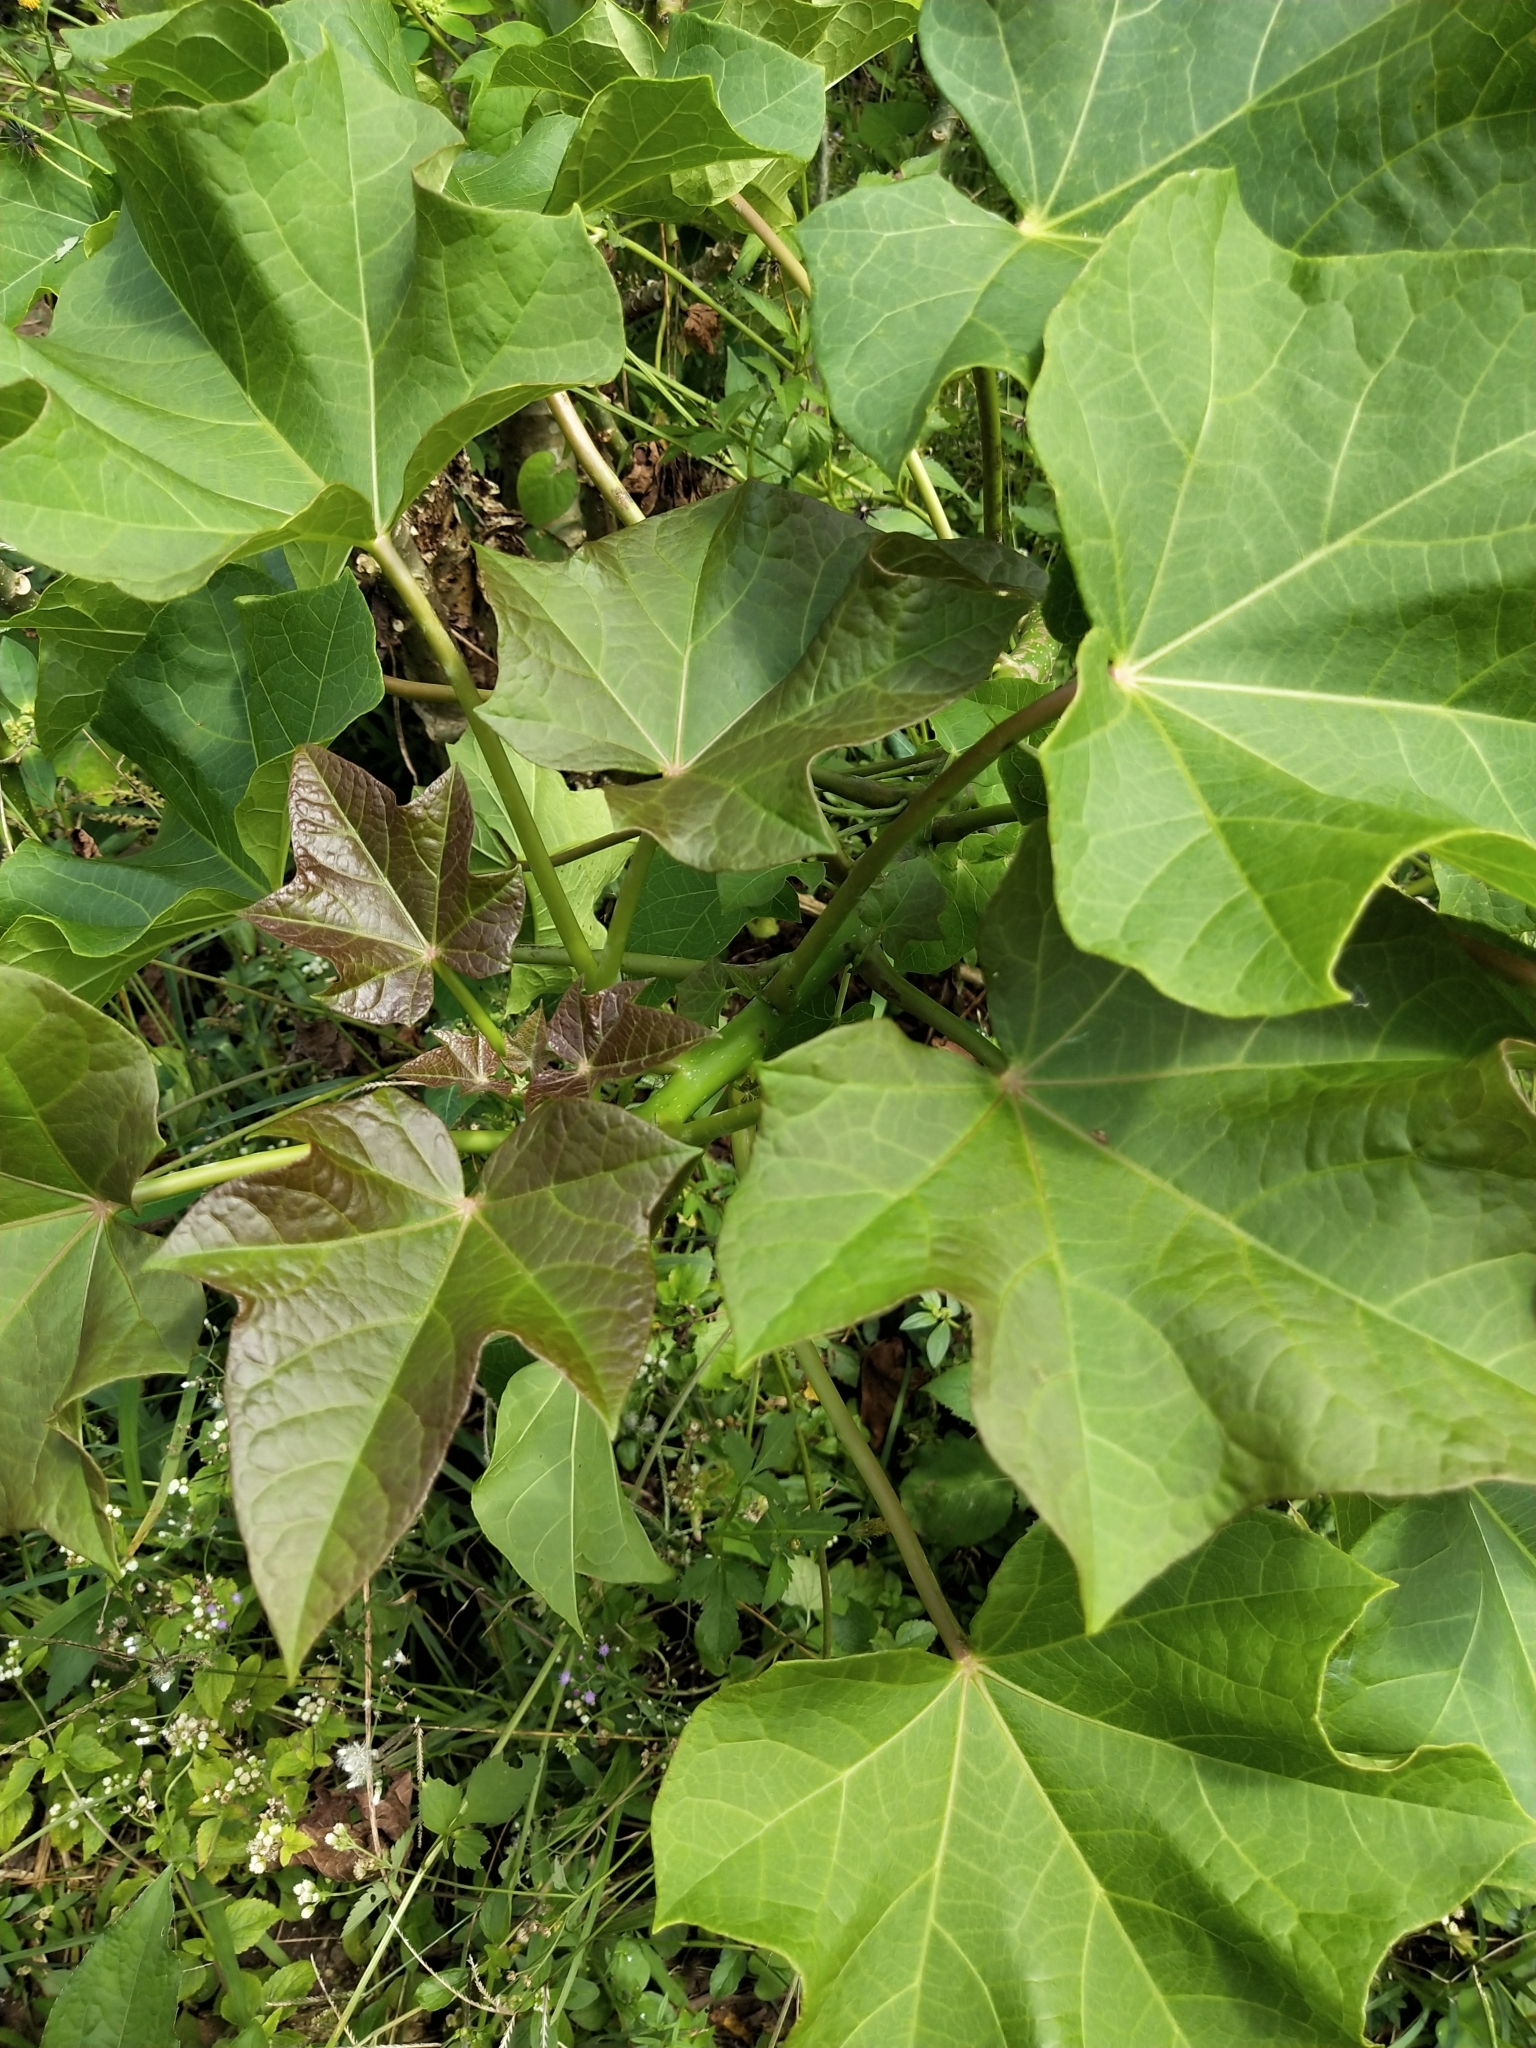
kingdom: Plantae
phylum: Tracheophyta
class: Magnoliopsida
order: Malpighiales
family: Euphorbiaceae
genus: Jatropha
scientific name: Jatropha curcas
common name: Barbados nut
